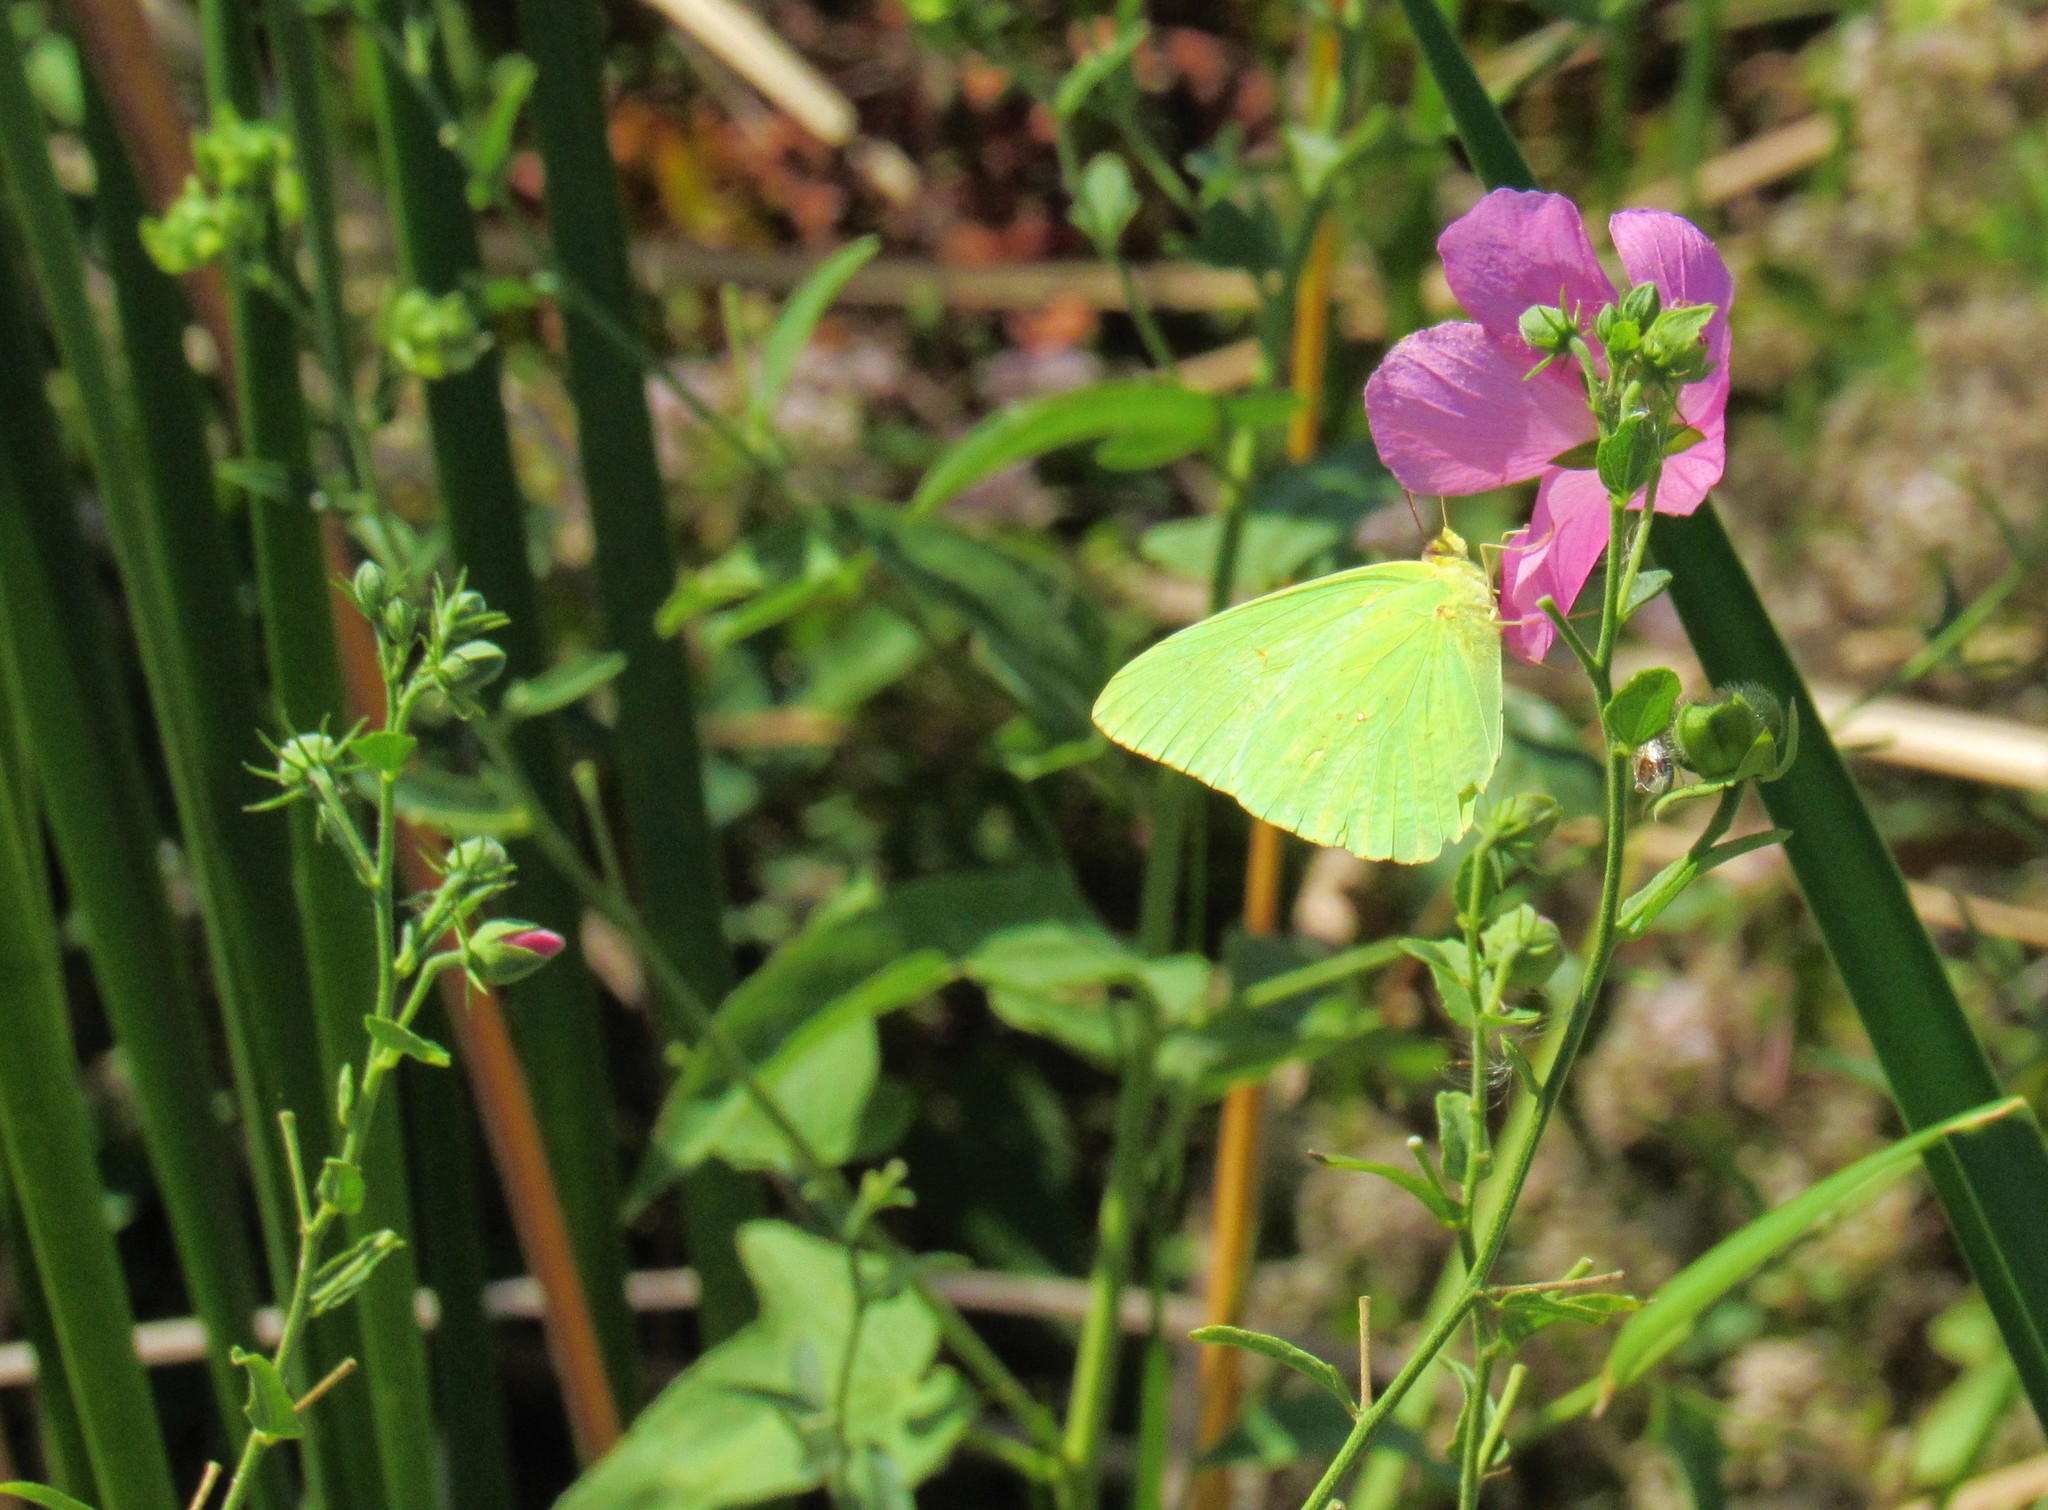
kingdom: Animalia
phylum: Arthropoda
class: Insecta
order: Lepidoptera
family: Pieridae
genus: Phoebis
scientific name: Phoebis sennae
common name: Cloudless sulphur
